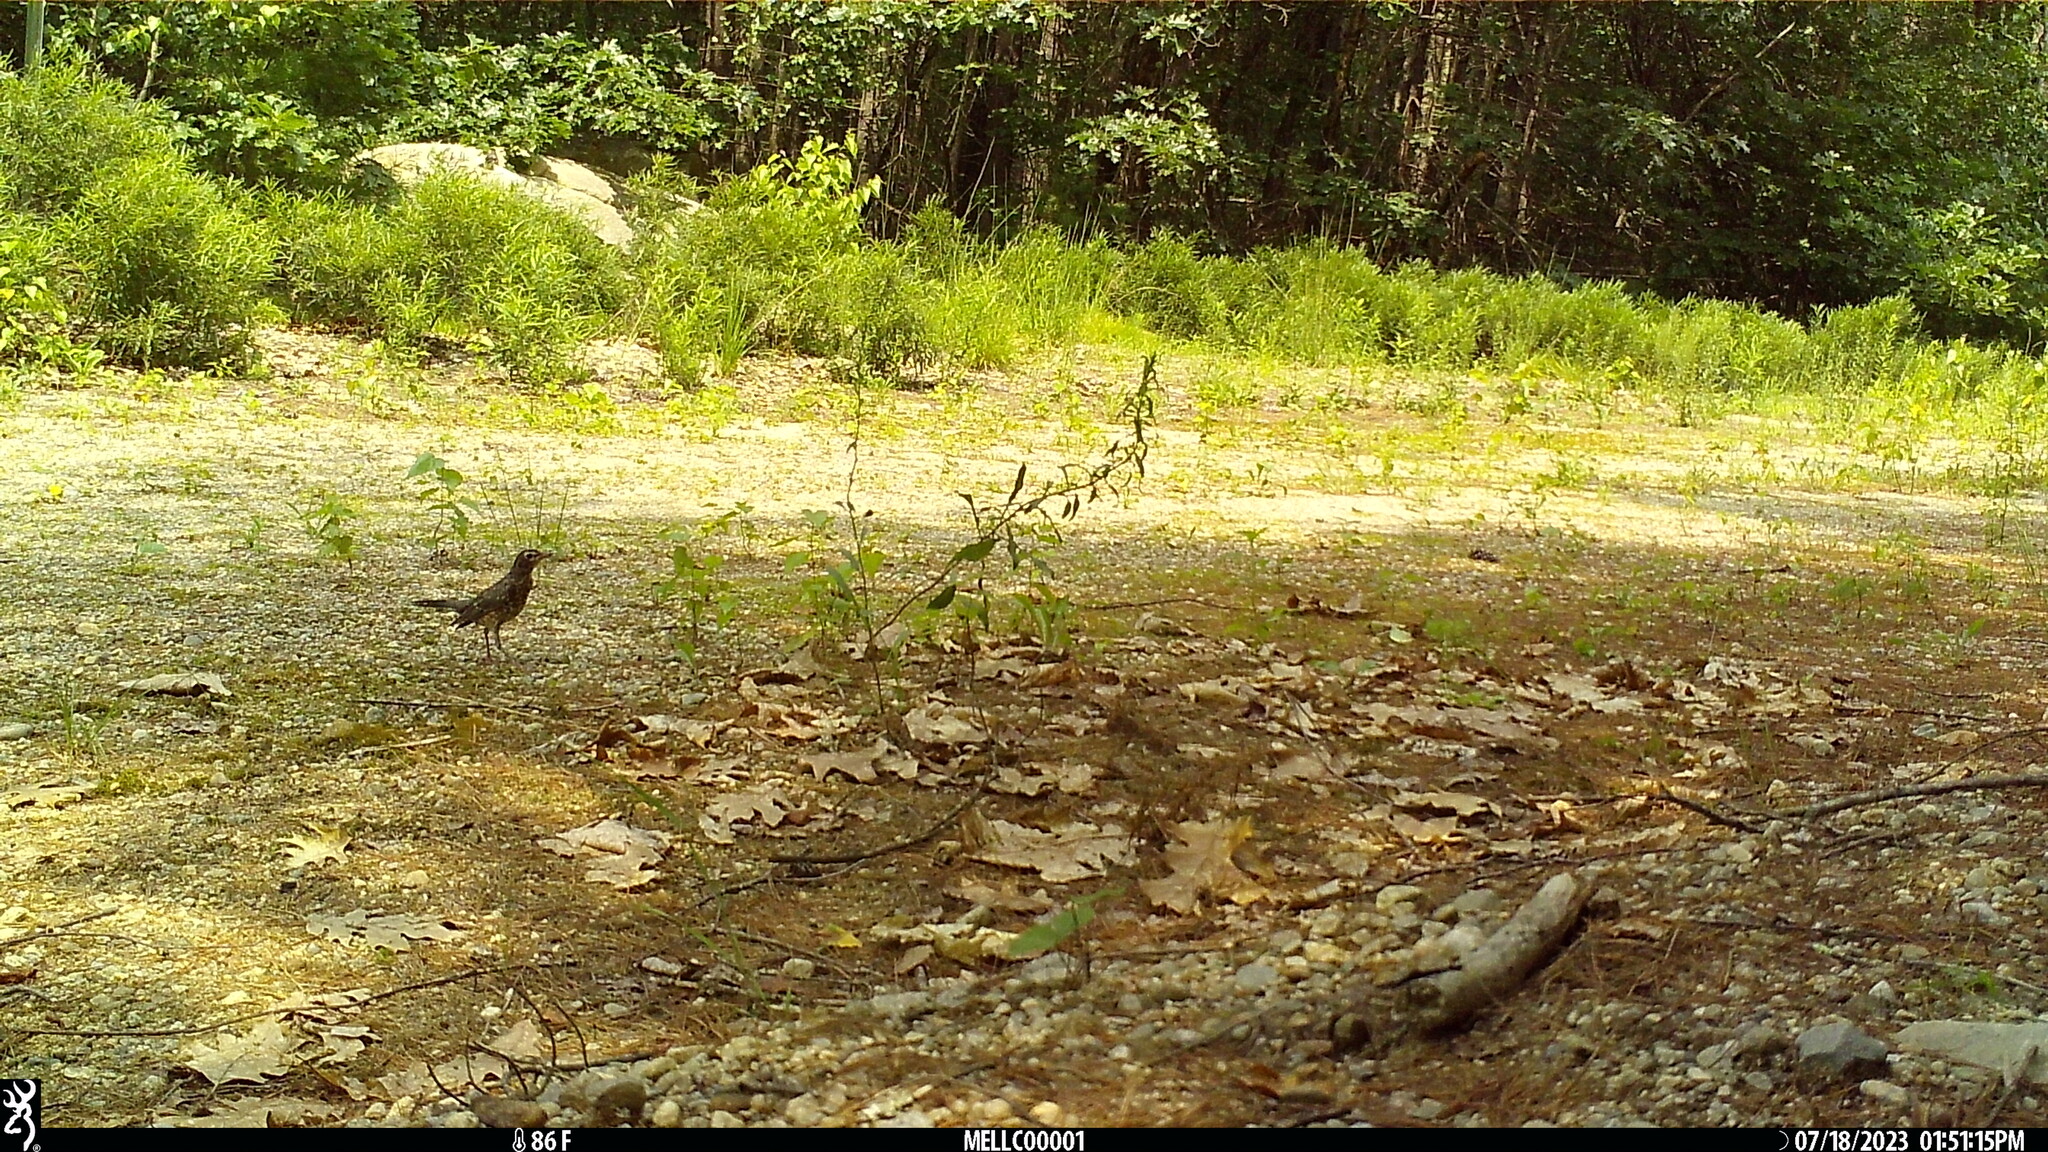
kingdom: Animalia
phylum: Chordata
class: Aves
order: Passeriformes
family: Turdidae
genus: Turdus
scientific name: Turdus migratorius
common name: American robin
